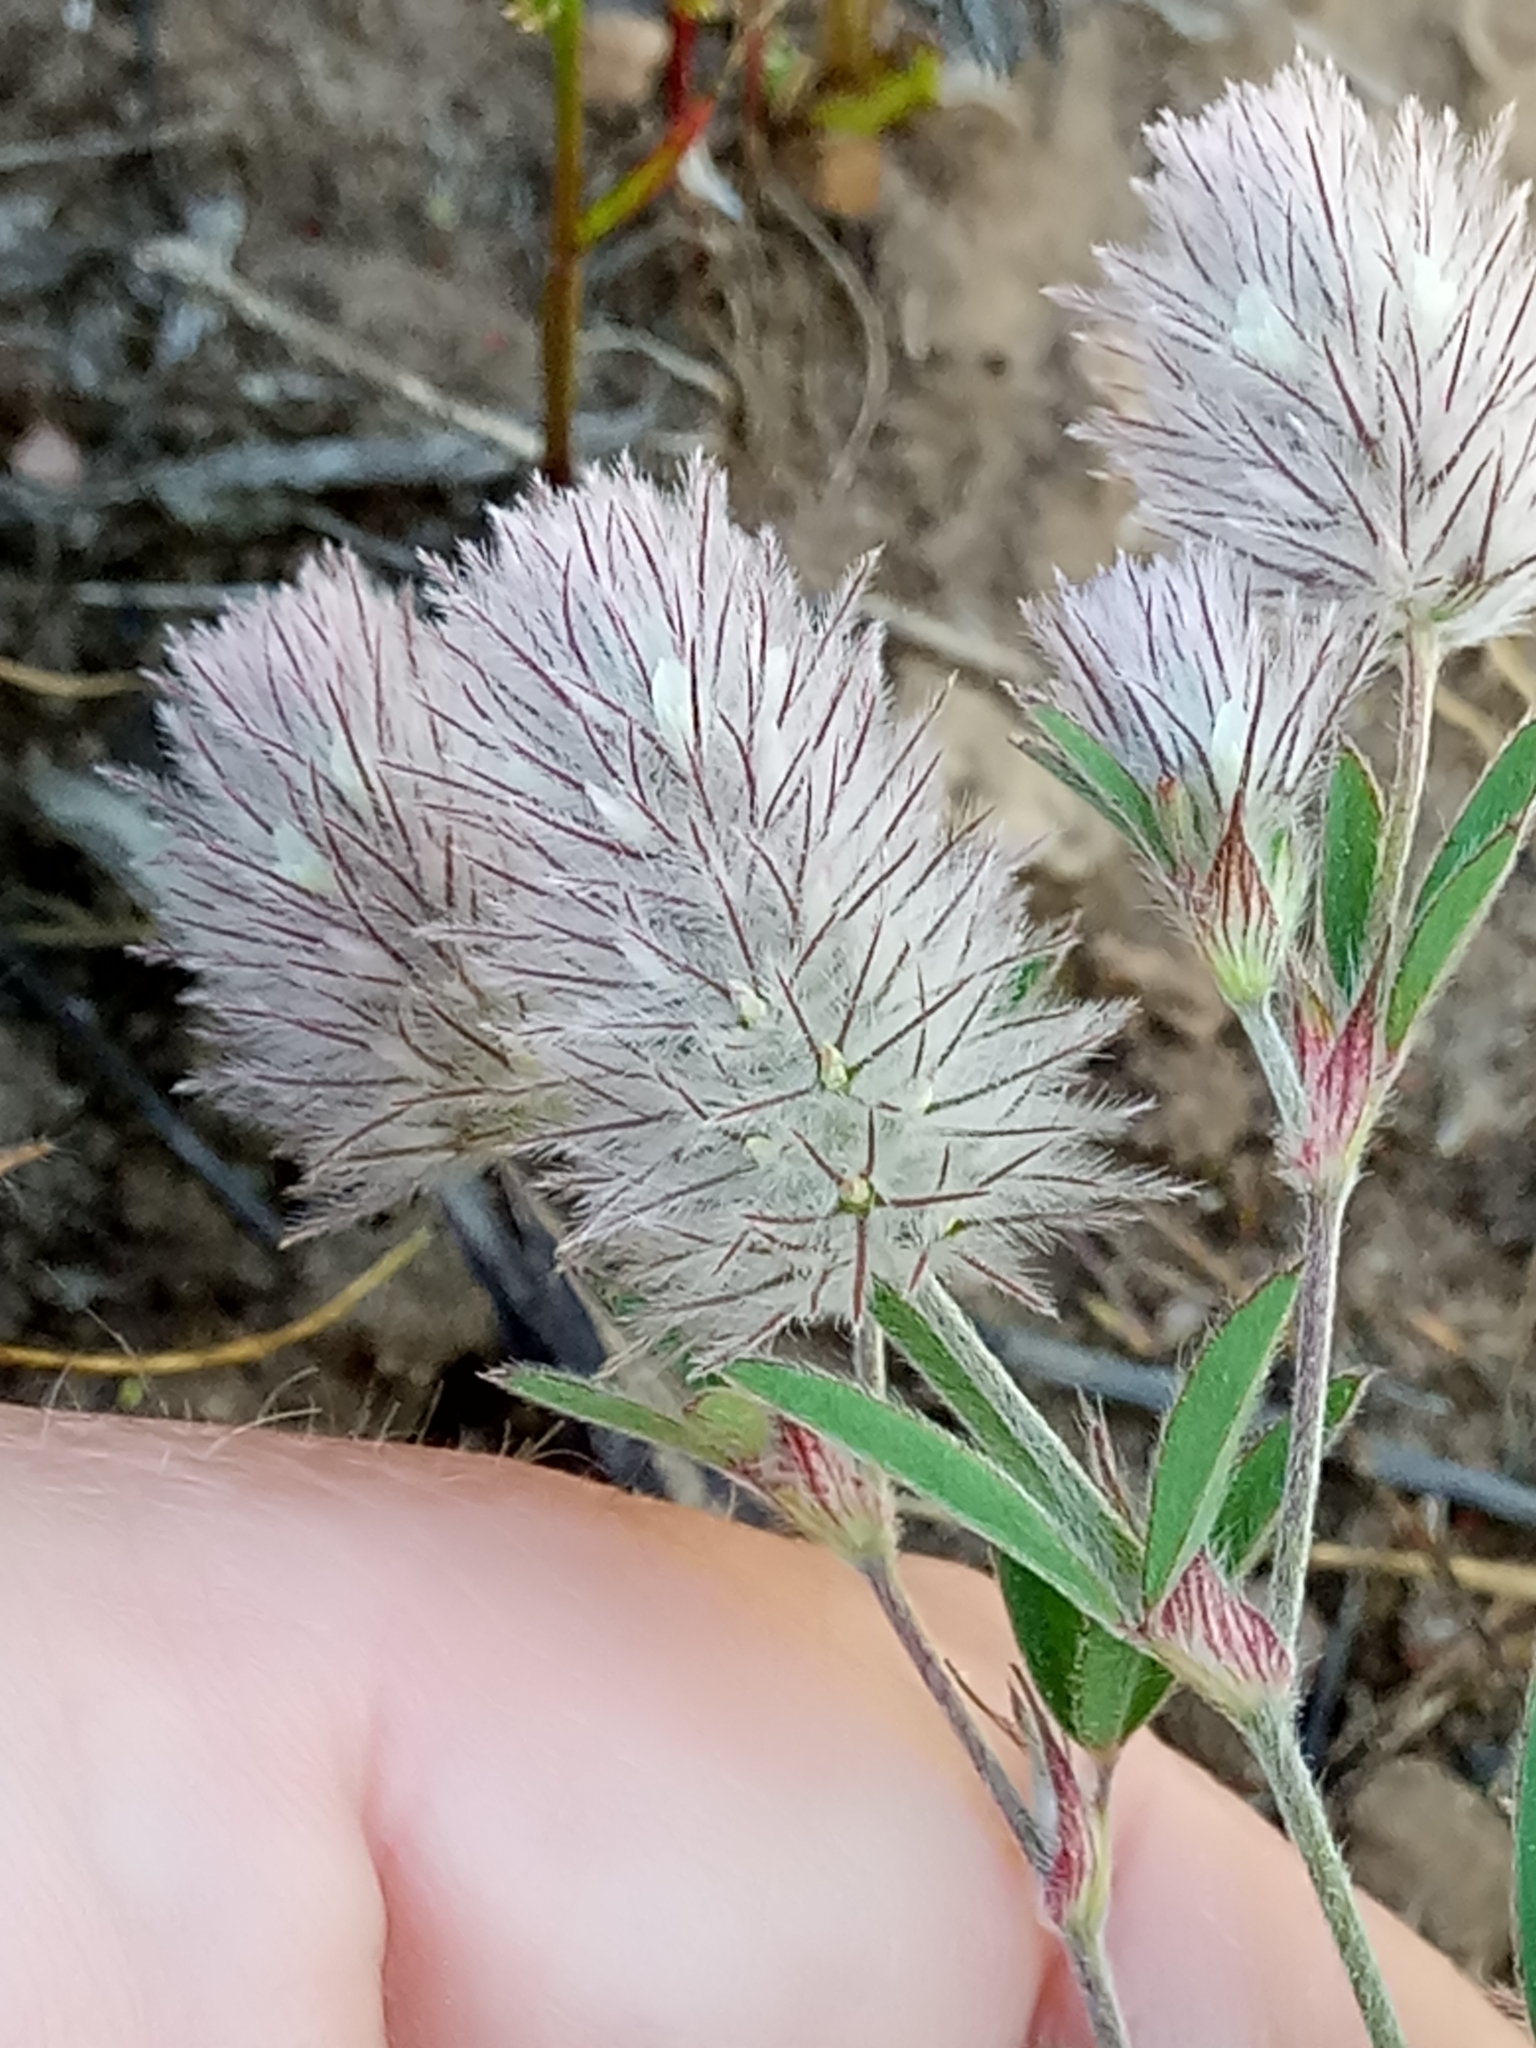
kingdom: Plantae
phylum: Tracheophyta
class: Magnoliopsida
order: Fabales
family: Fabaceae
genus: Trifolium
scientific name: Trifolium arvense
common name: Hare's-foot clover
